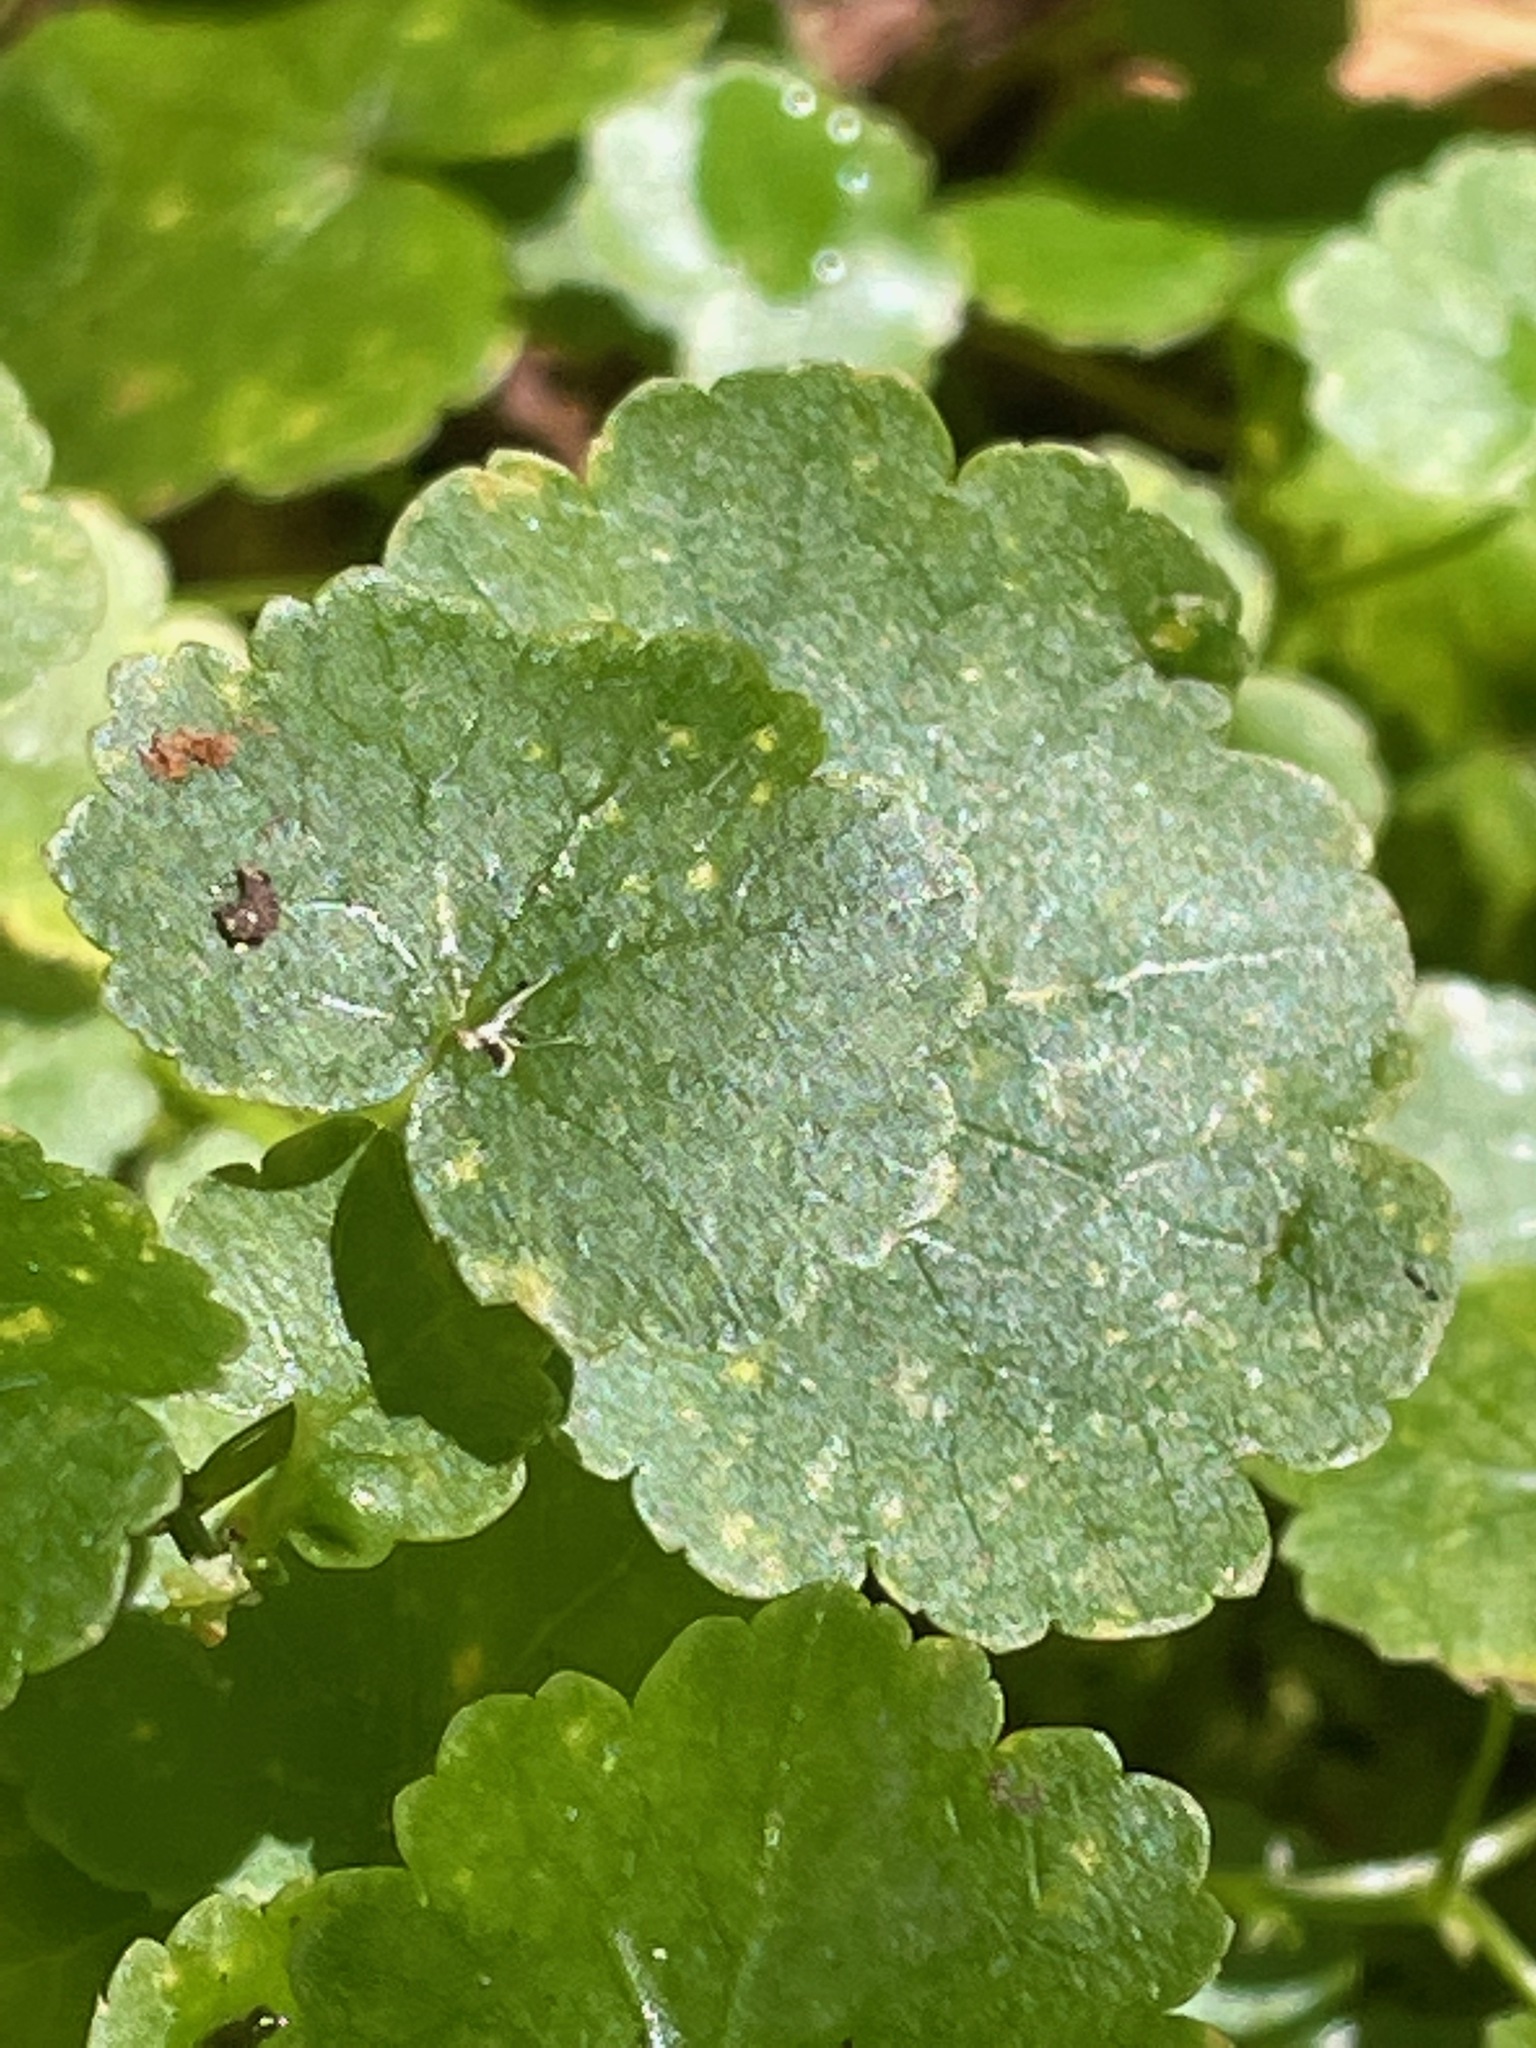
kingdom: Plantae
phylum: Tracheophyta
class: Magnoliopsida
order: Apiales
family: Araliaceae
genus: Hydrocotyle
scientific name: Hydrocotyle americana
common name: American water-pennywort
